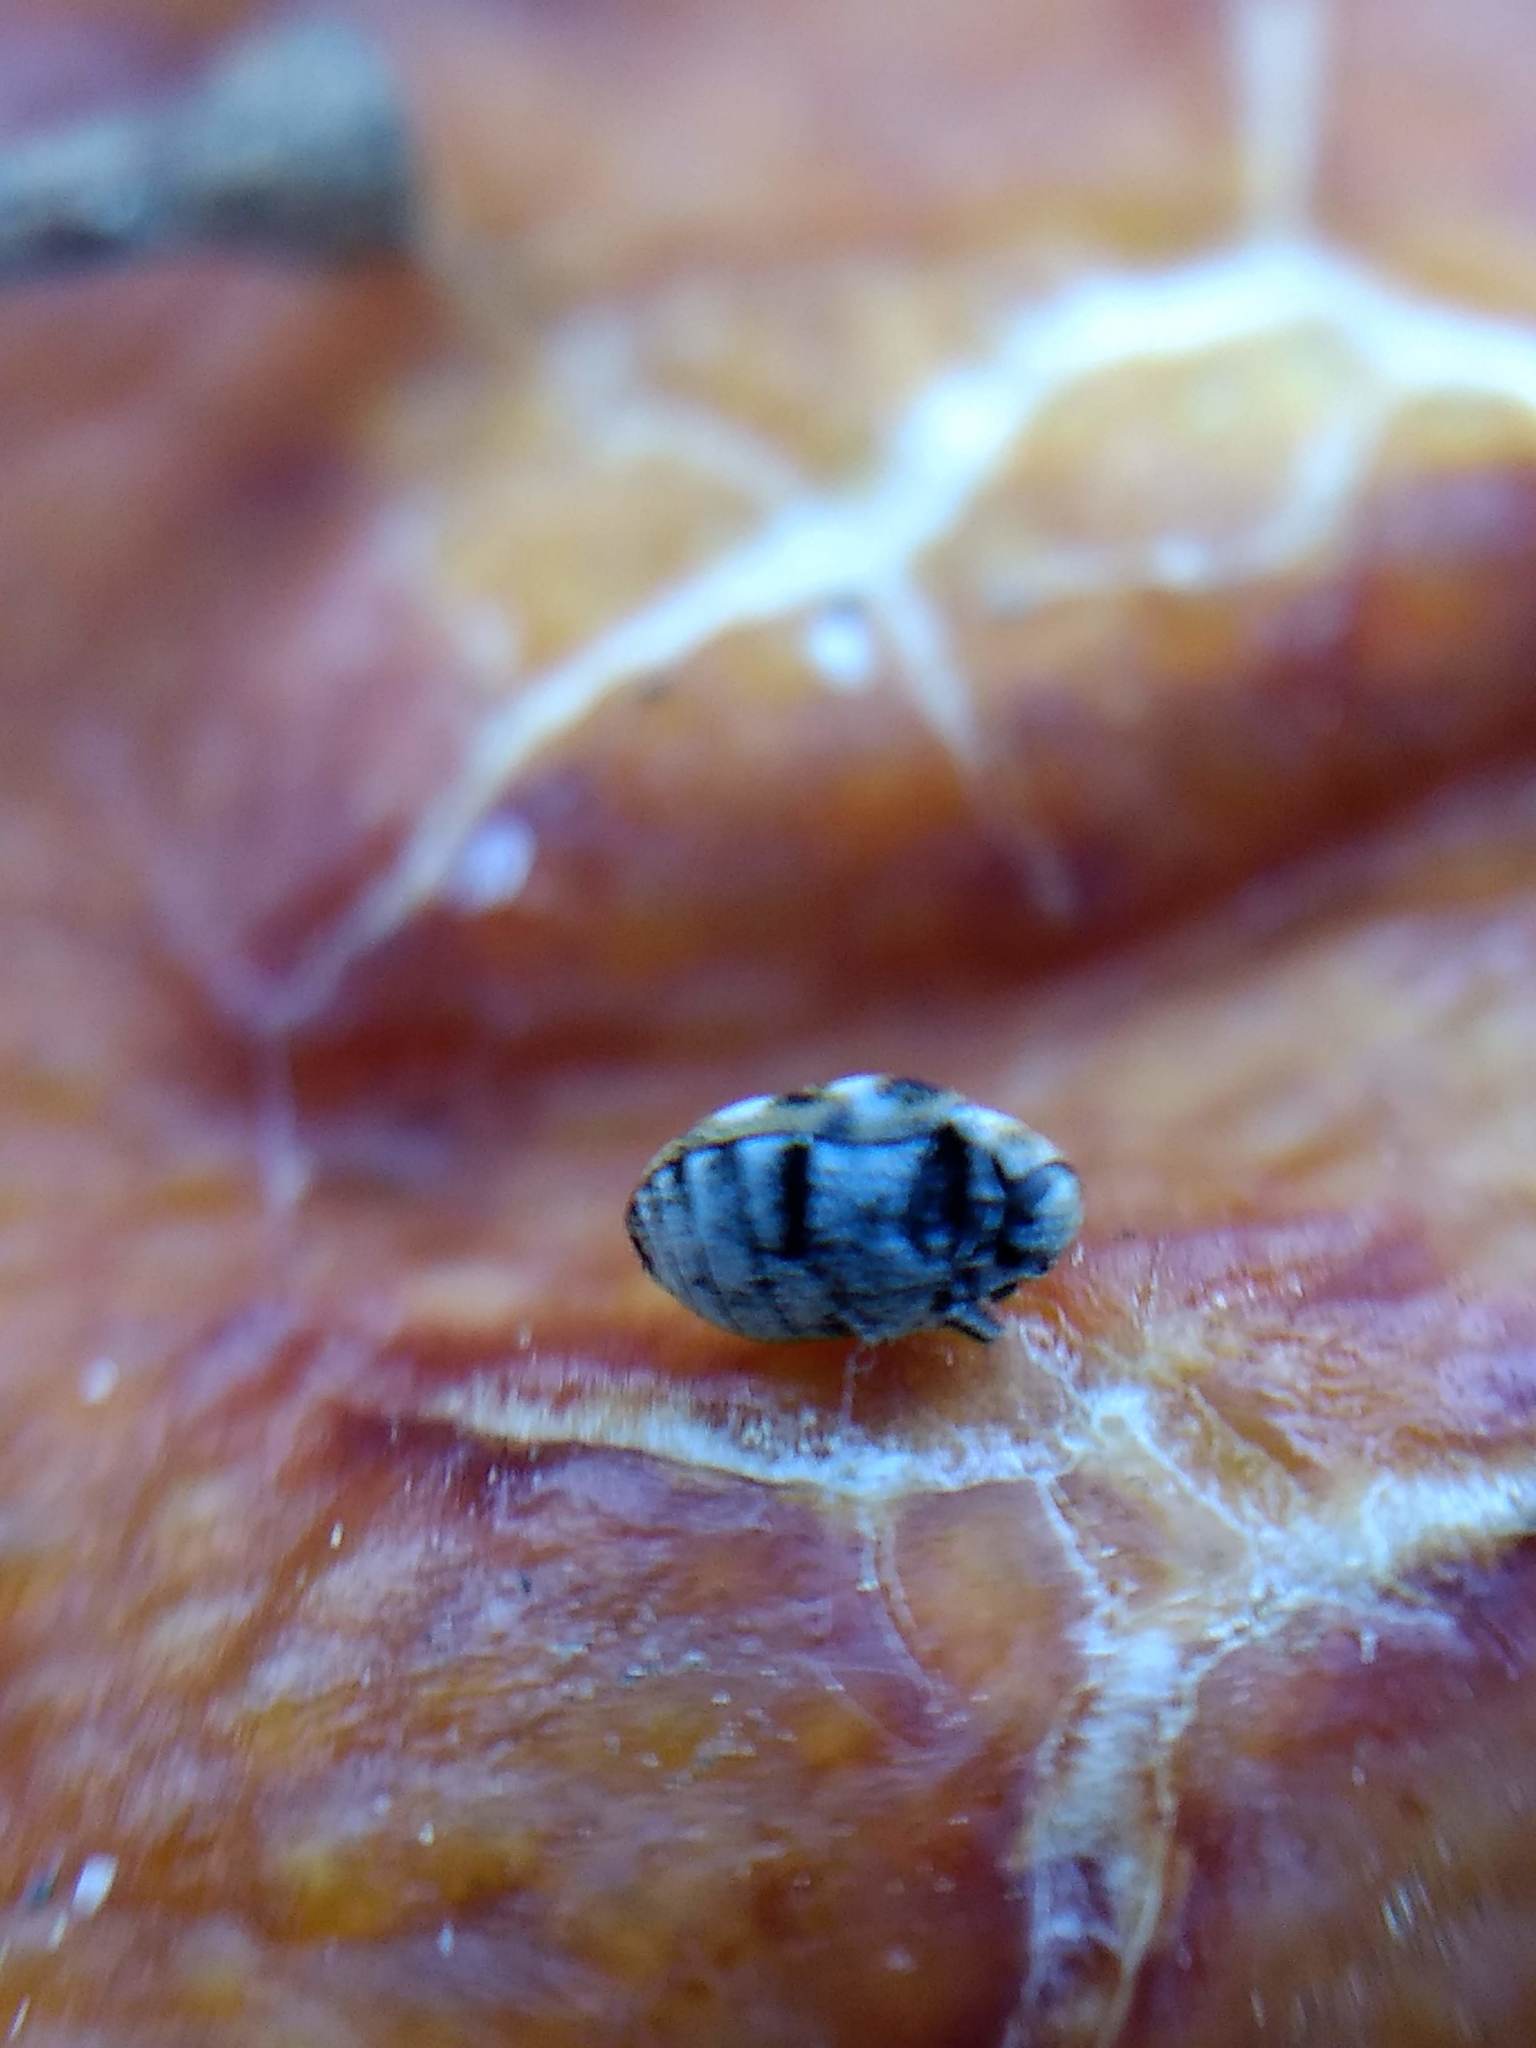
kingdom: Animalia
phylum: Arthropoda
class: Insecta
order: Coleoptera
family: Dermestidae
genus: Anthrenus
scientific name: Anthrenus verbasci
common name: Varied carpet beetle
